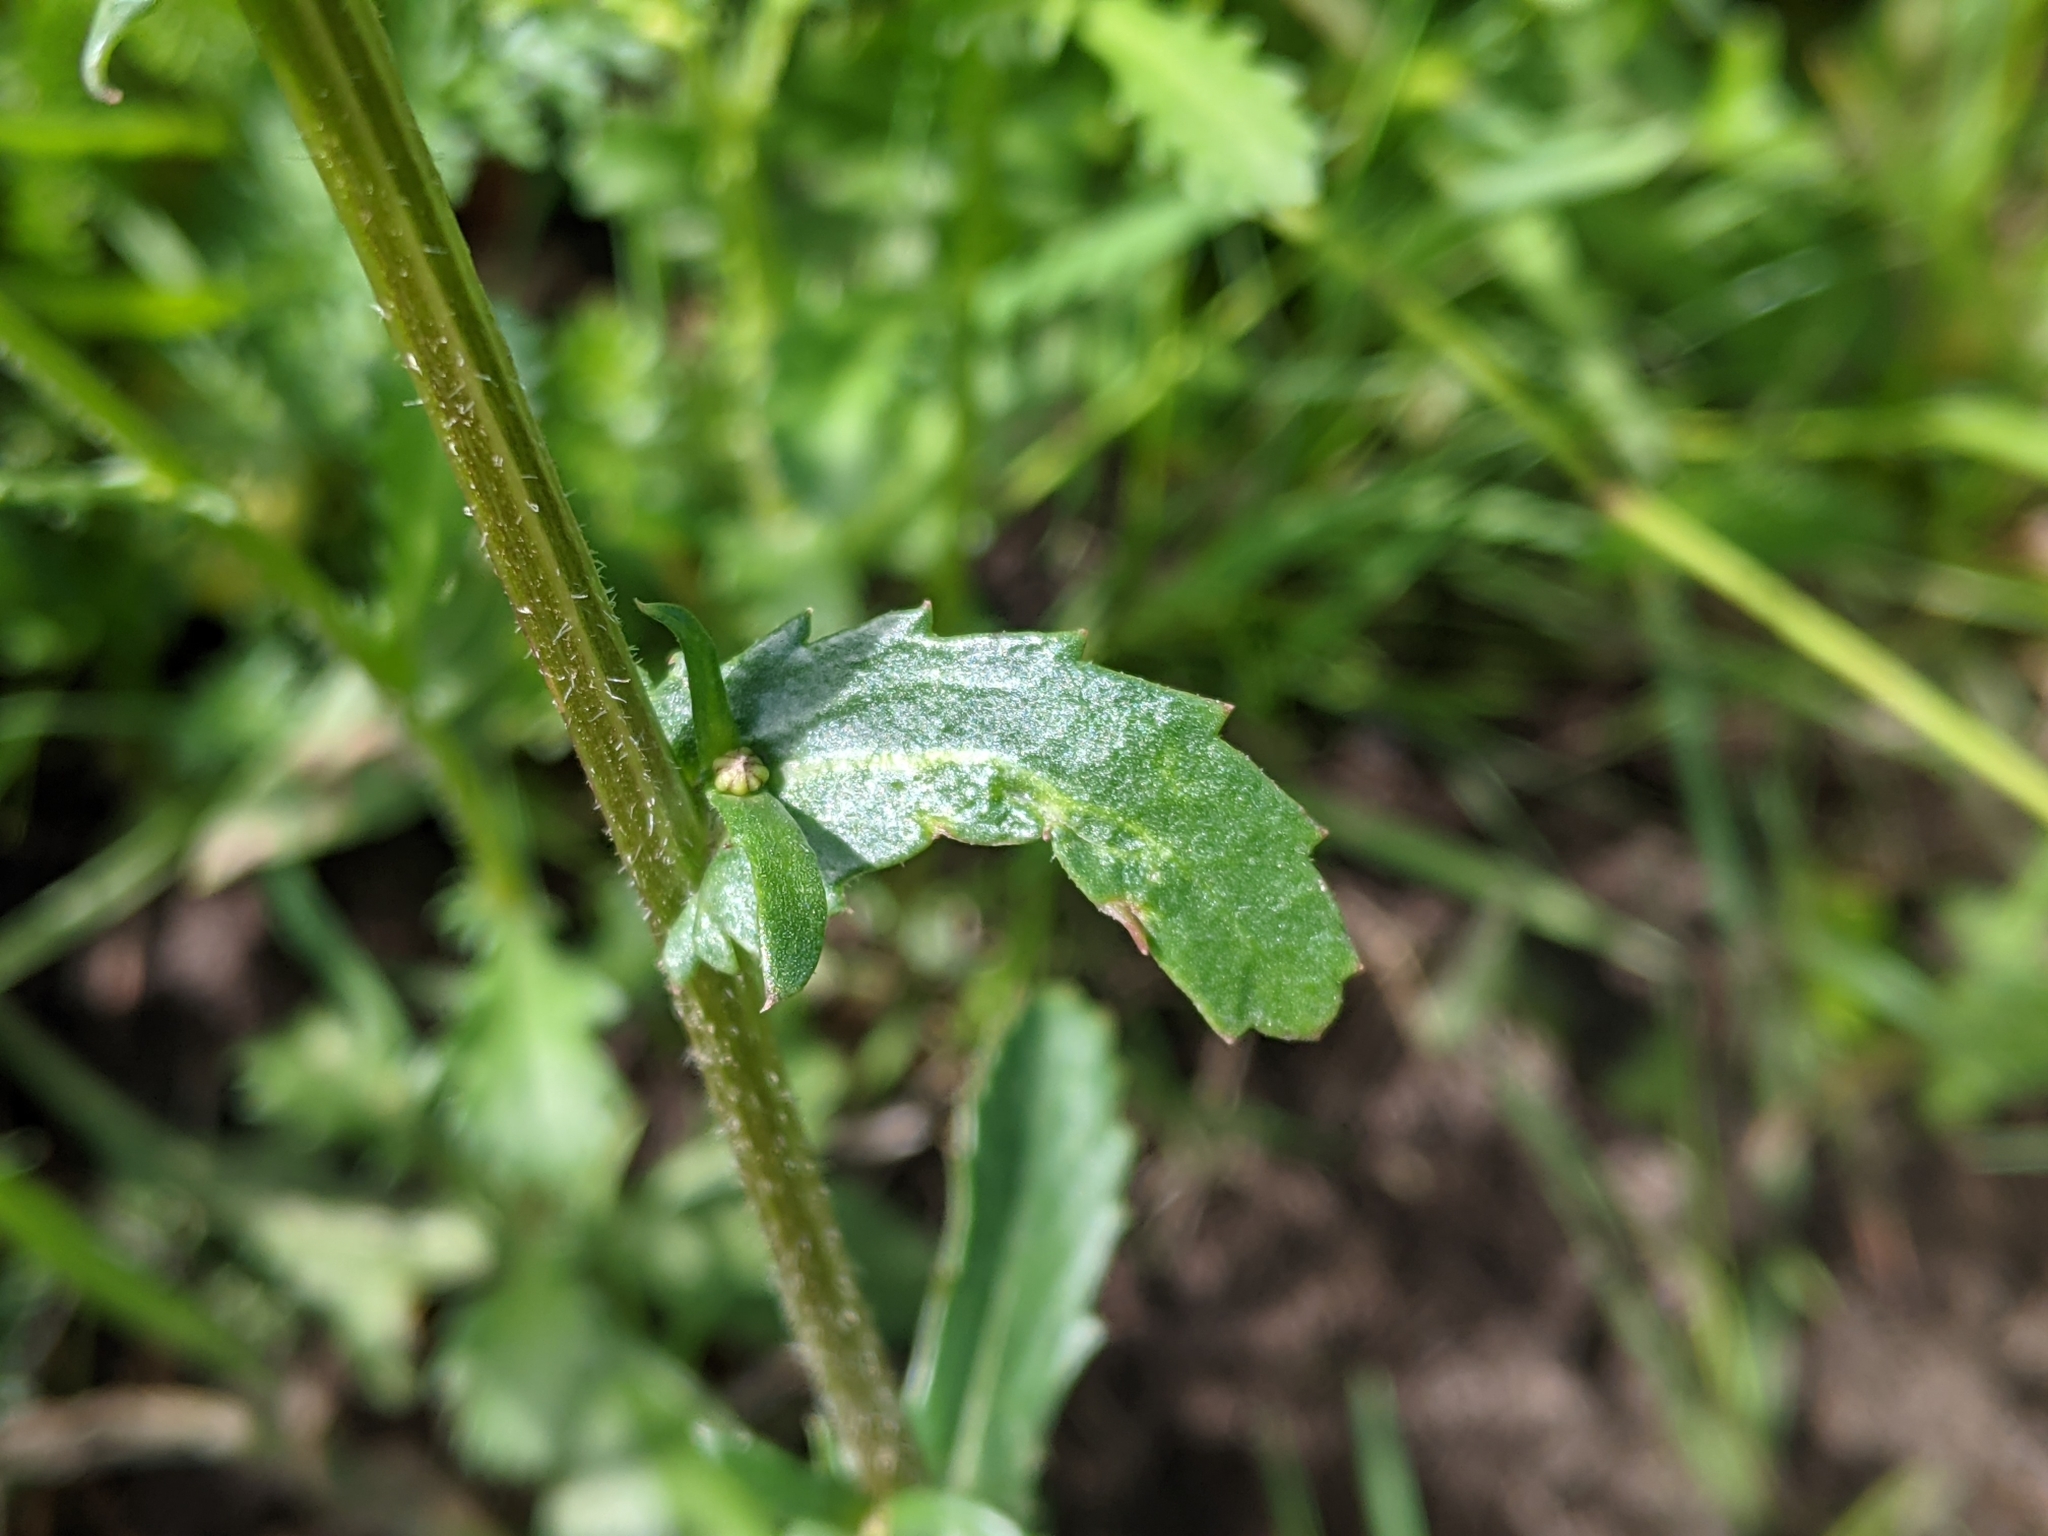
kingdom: Plantae
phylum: Tracheophyta
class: Magnoliopsida
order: Asterales
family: Asteraceae
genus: Leucanthemum
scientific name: Leucanthemum vulgare
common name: Oxeye daisy
